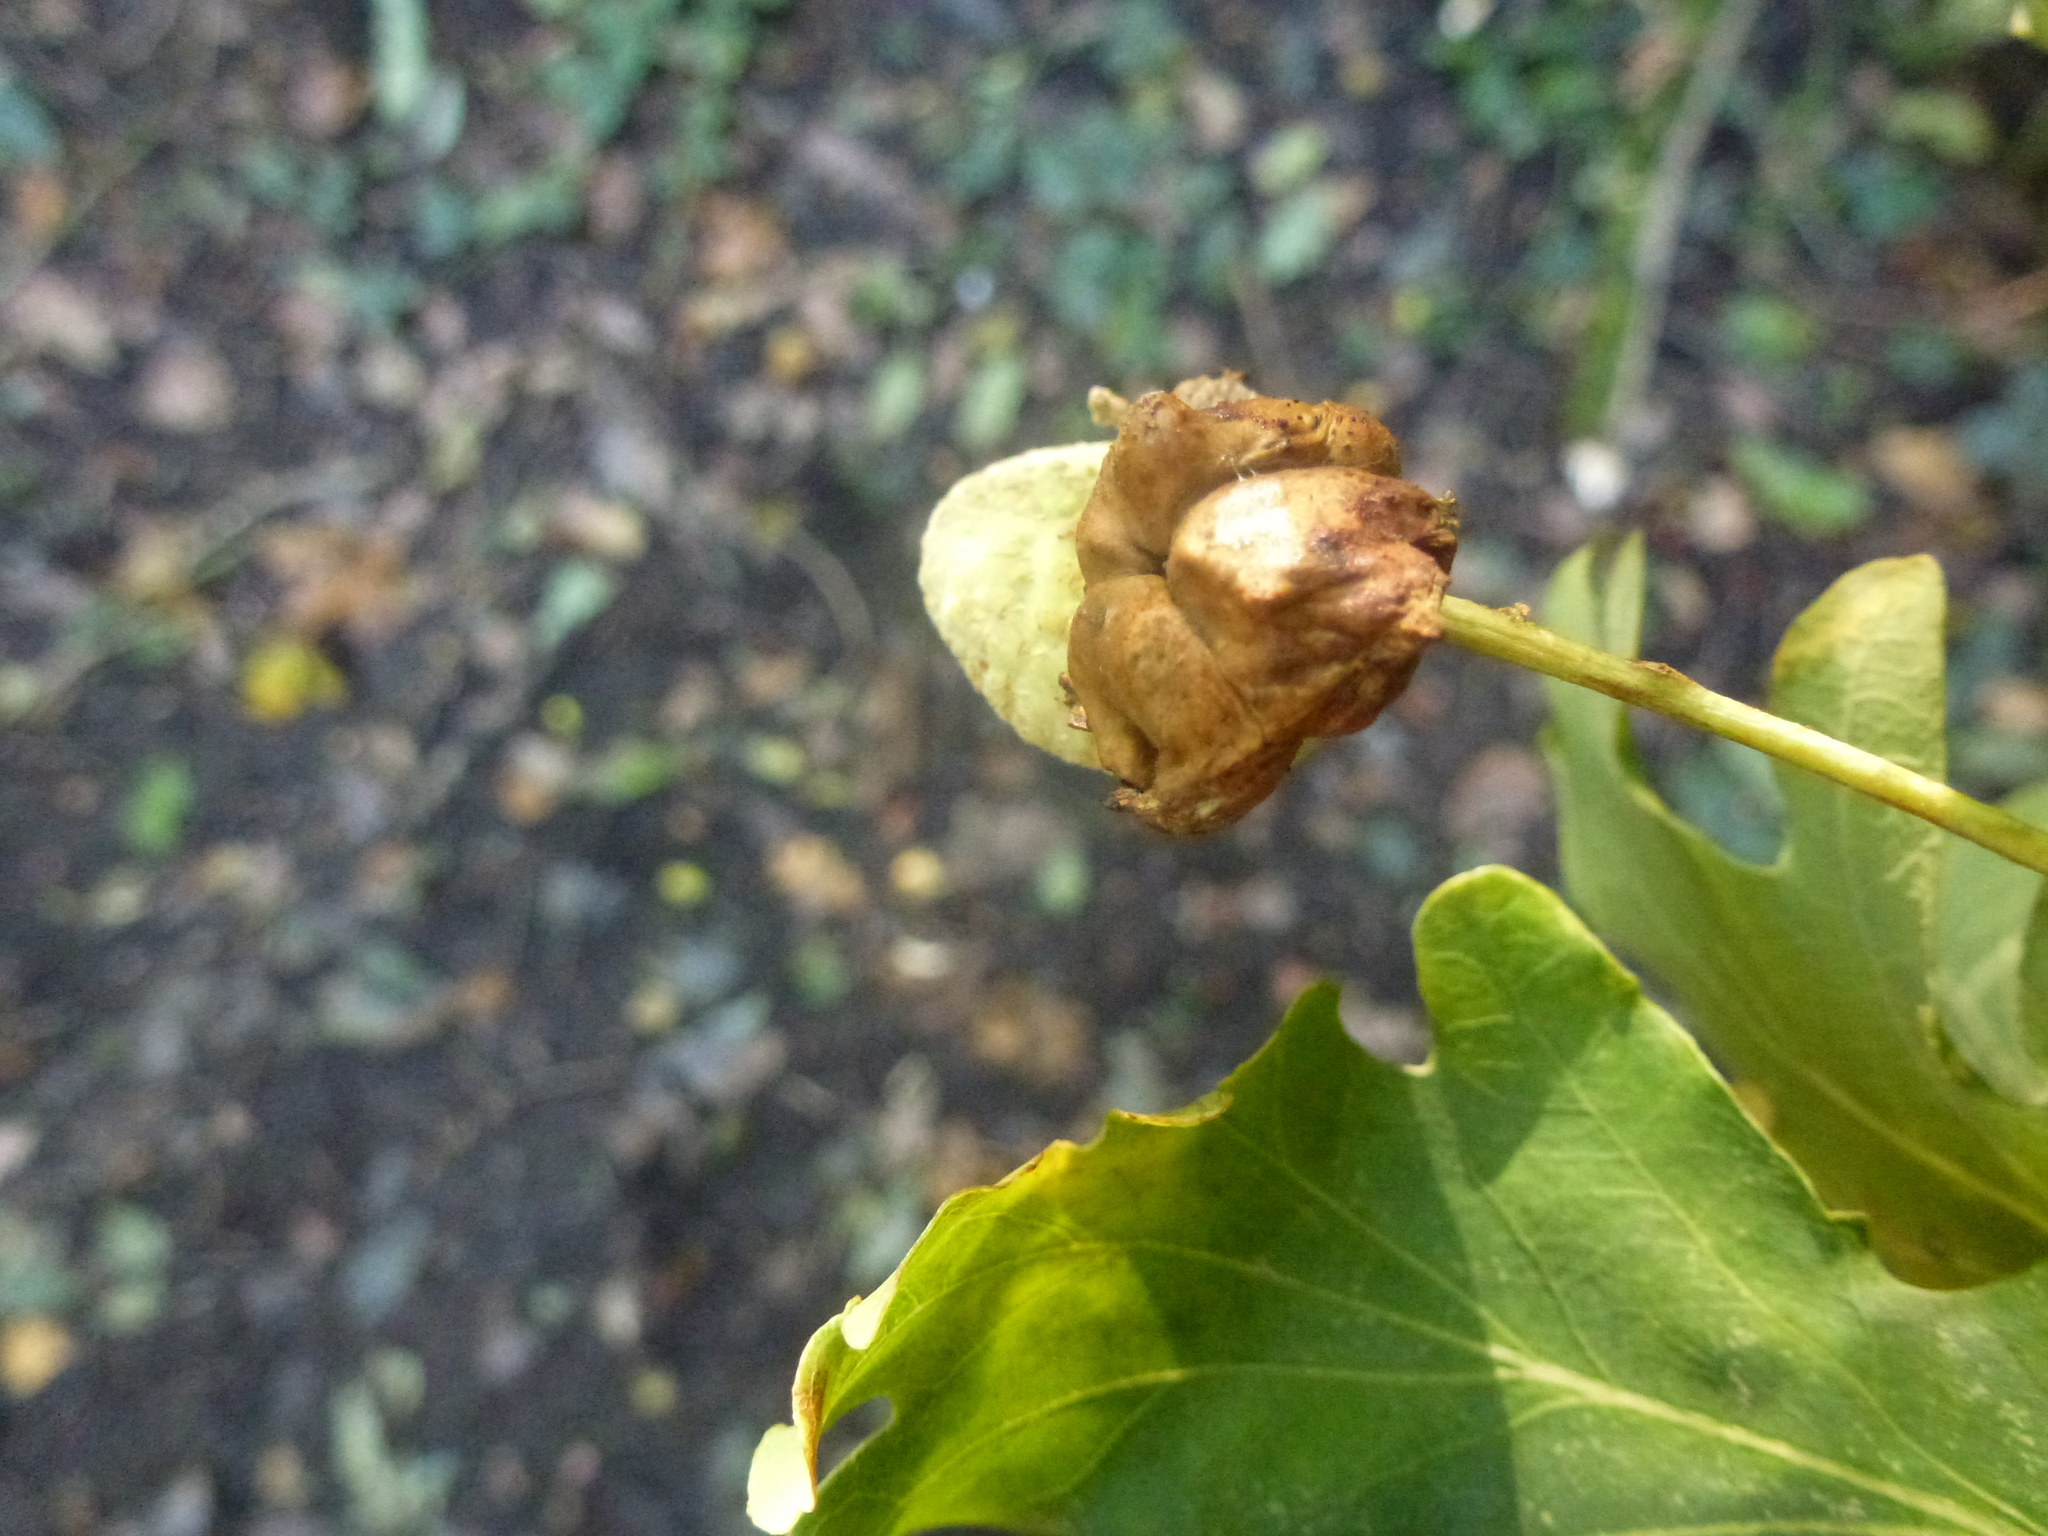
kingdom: Animalia
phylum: Arthropoda
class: Insecta
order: Hymenoptera
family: Cynipidae
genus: Andricus
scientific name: Andricus quercuscalicis
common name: Knopper gall
